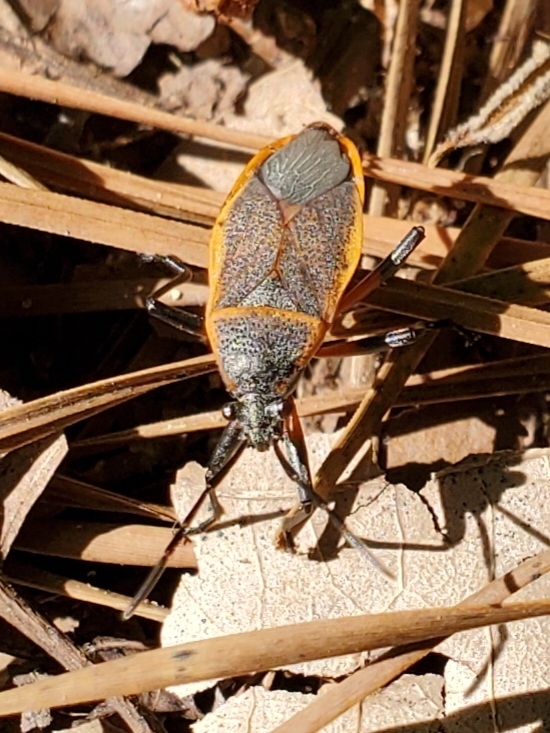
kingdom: Animalia
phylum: Arthropoda
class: Insecta
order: Hemiptera
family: Largidae
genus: Largus
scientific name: Largus succinctus
